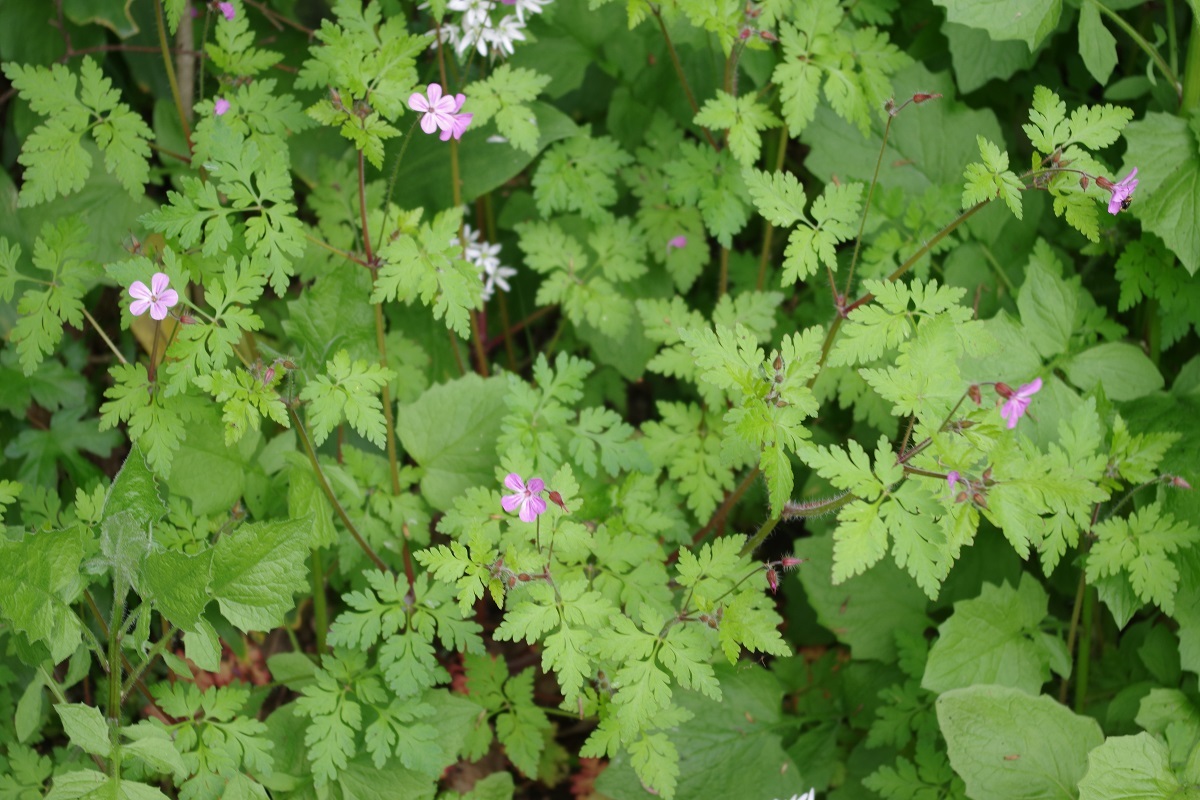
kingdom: Plantae
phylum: Tracheophyta
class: Magnoliopsida
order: Geraniales
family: Geraniaceae
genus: Geranium
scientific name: Geranium robertianum
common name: Herb-robert
